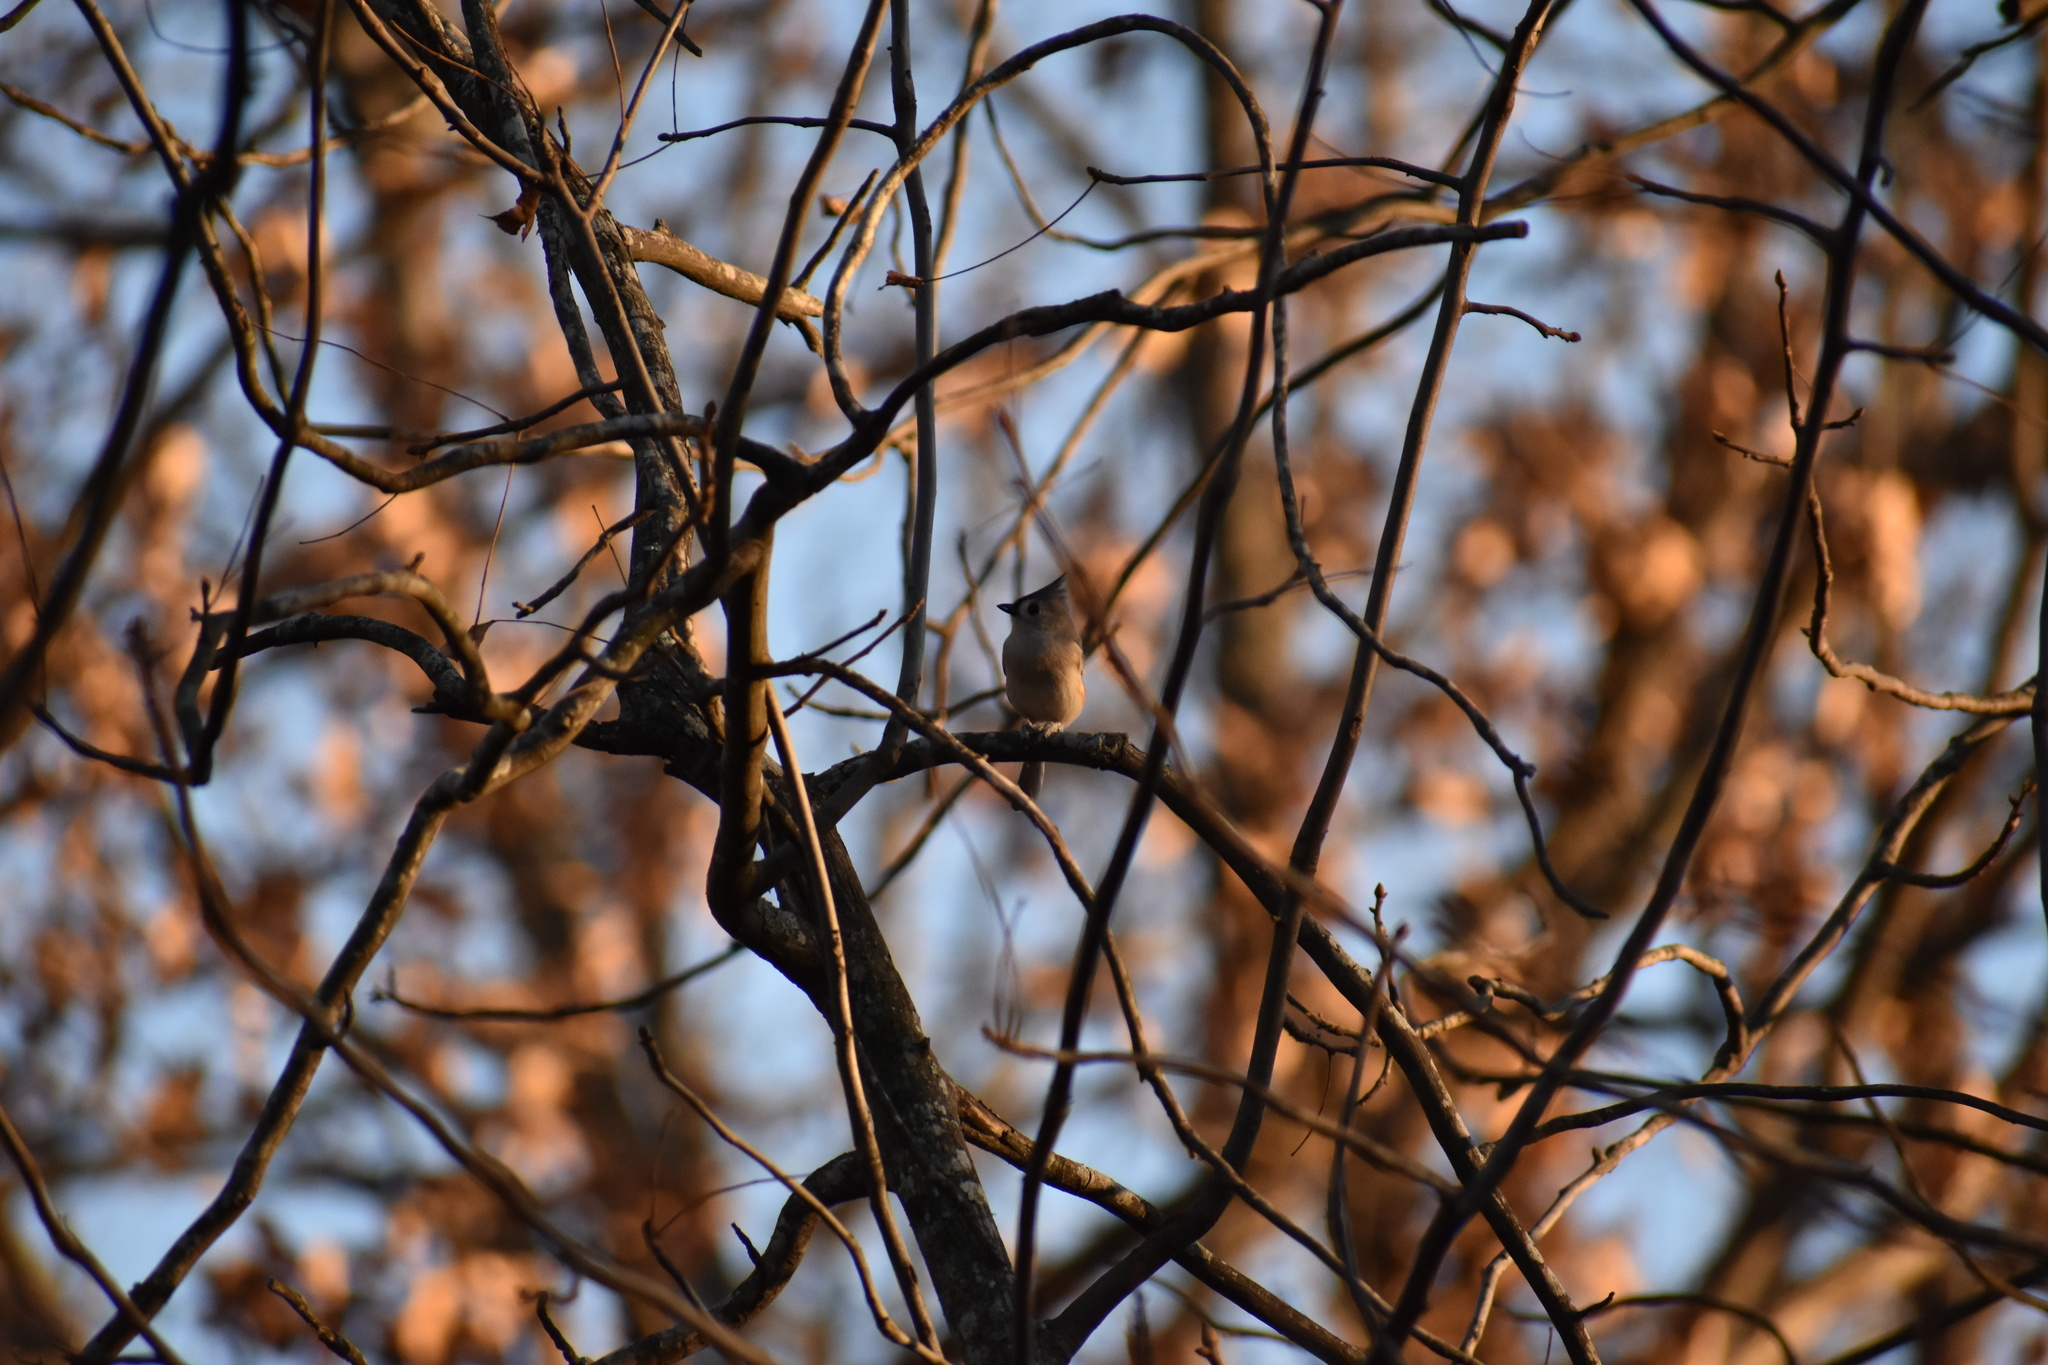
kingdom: Animalia
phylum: Chordata
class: Aves
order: Passeriformes
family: Paridae
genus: Baeolophus
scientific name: Baeolophus bicolor
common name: Tufted titmouse
